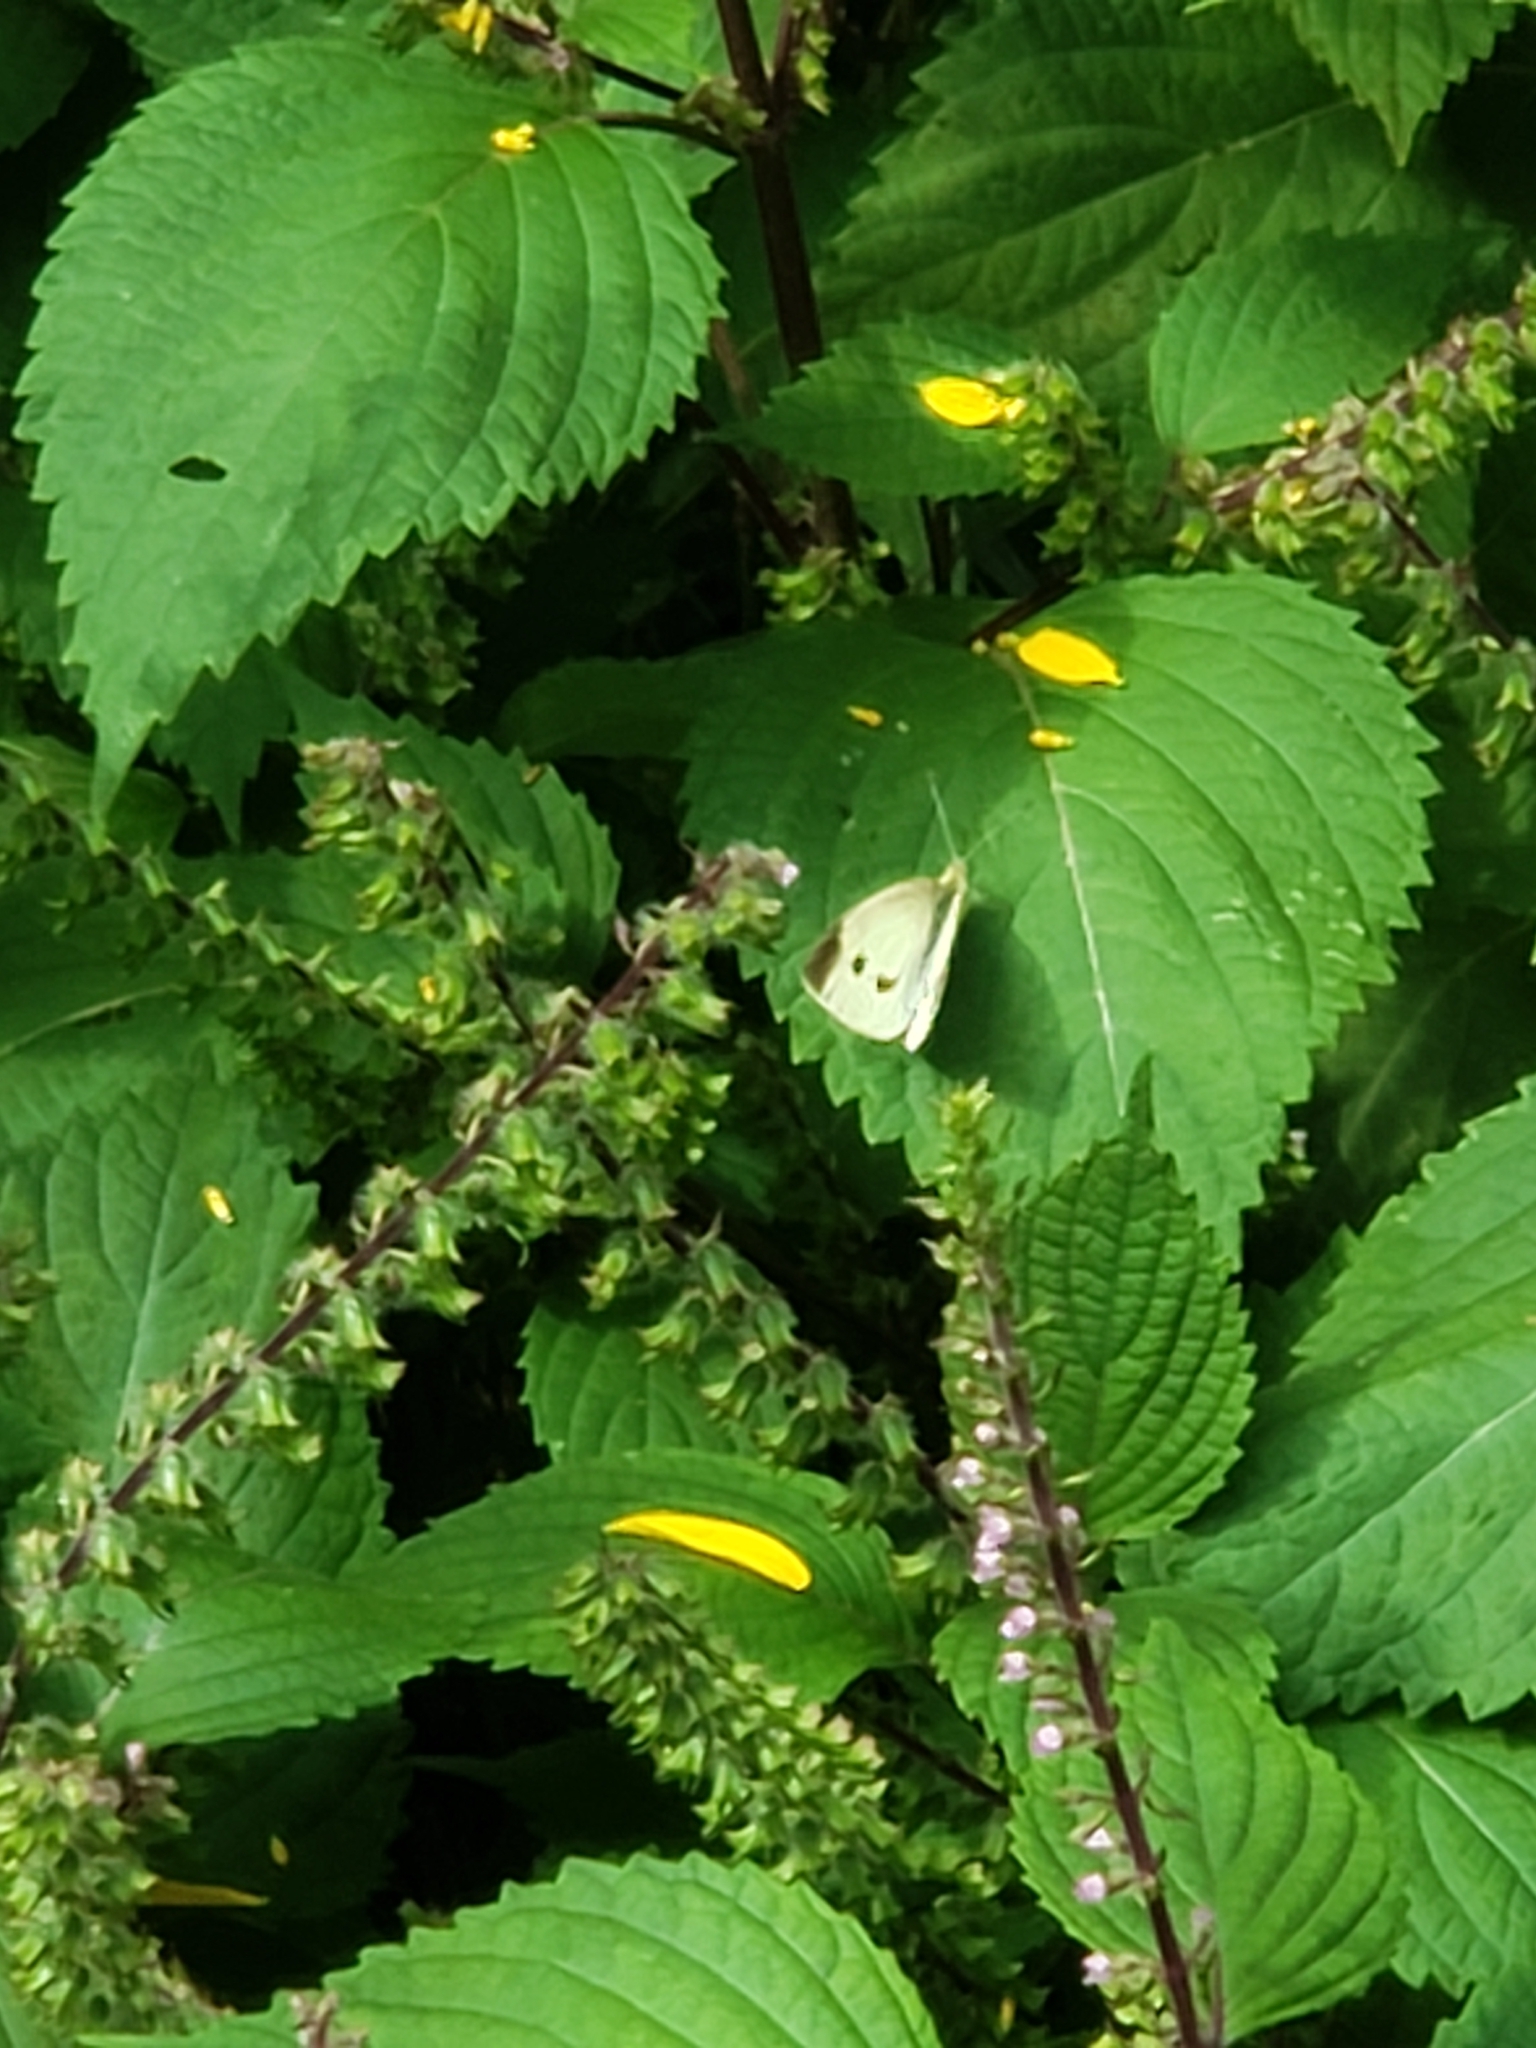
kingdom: Animalia
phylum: Arthropoda
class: Insecta
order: Lepidoptera
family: Pieridae
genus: Pieris
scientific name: Pieris rapae
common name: Small white
